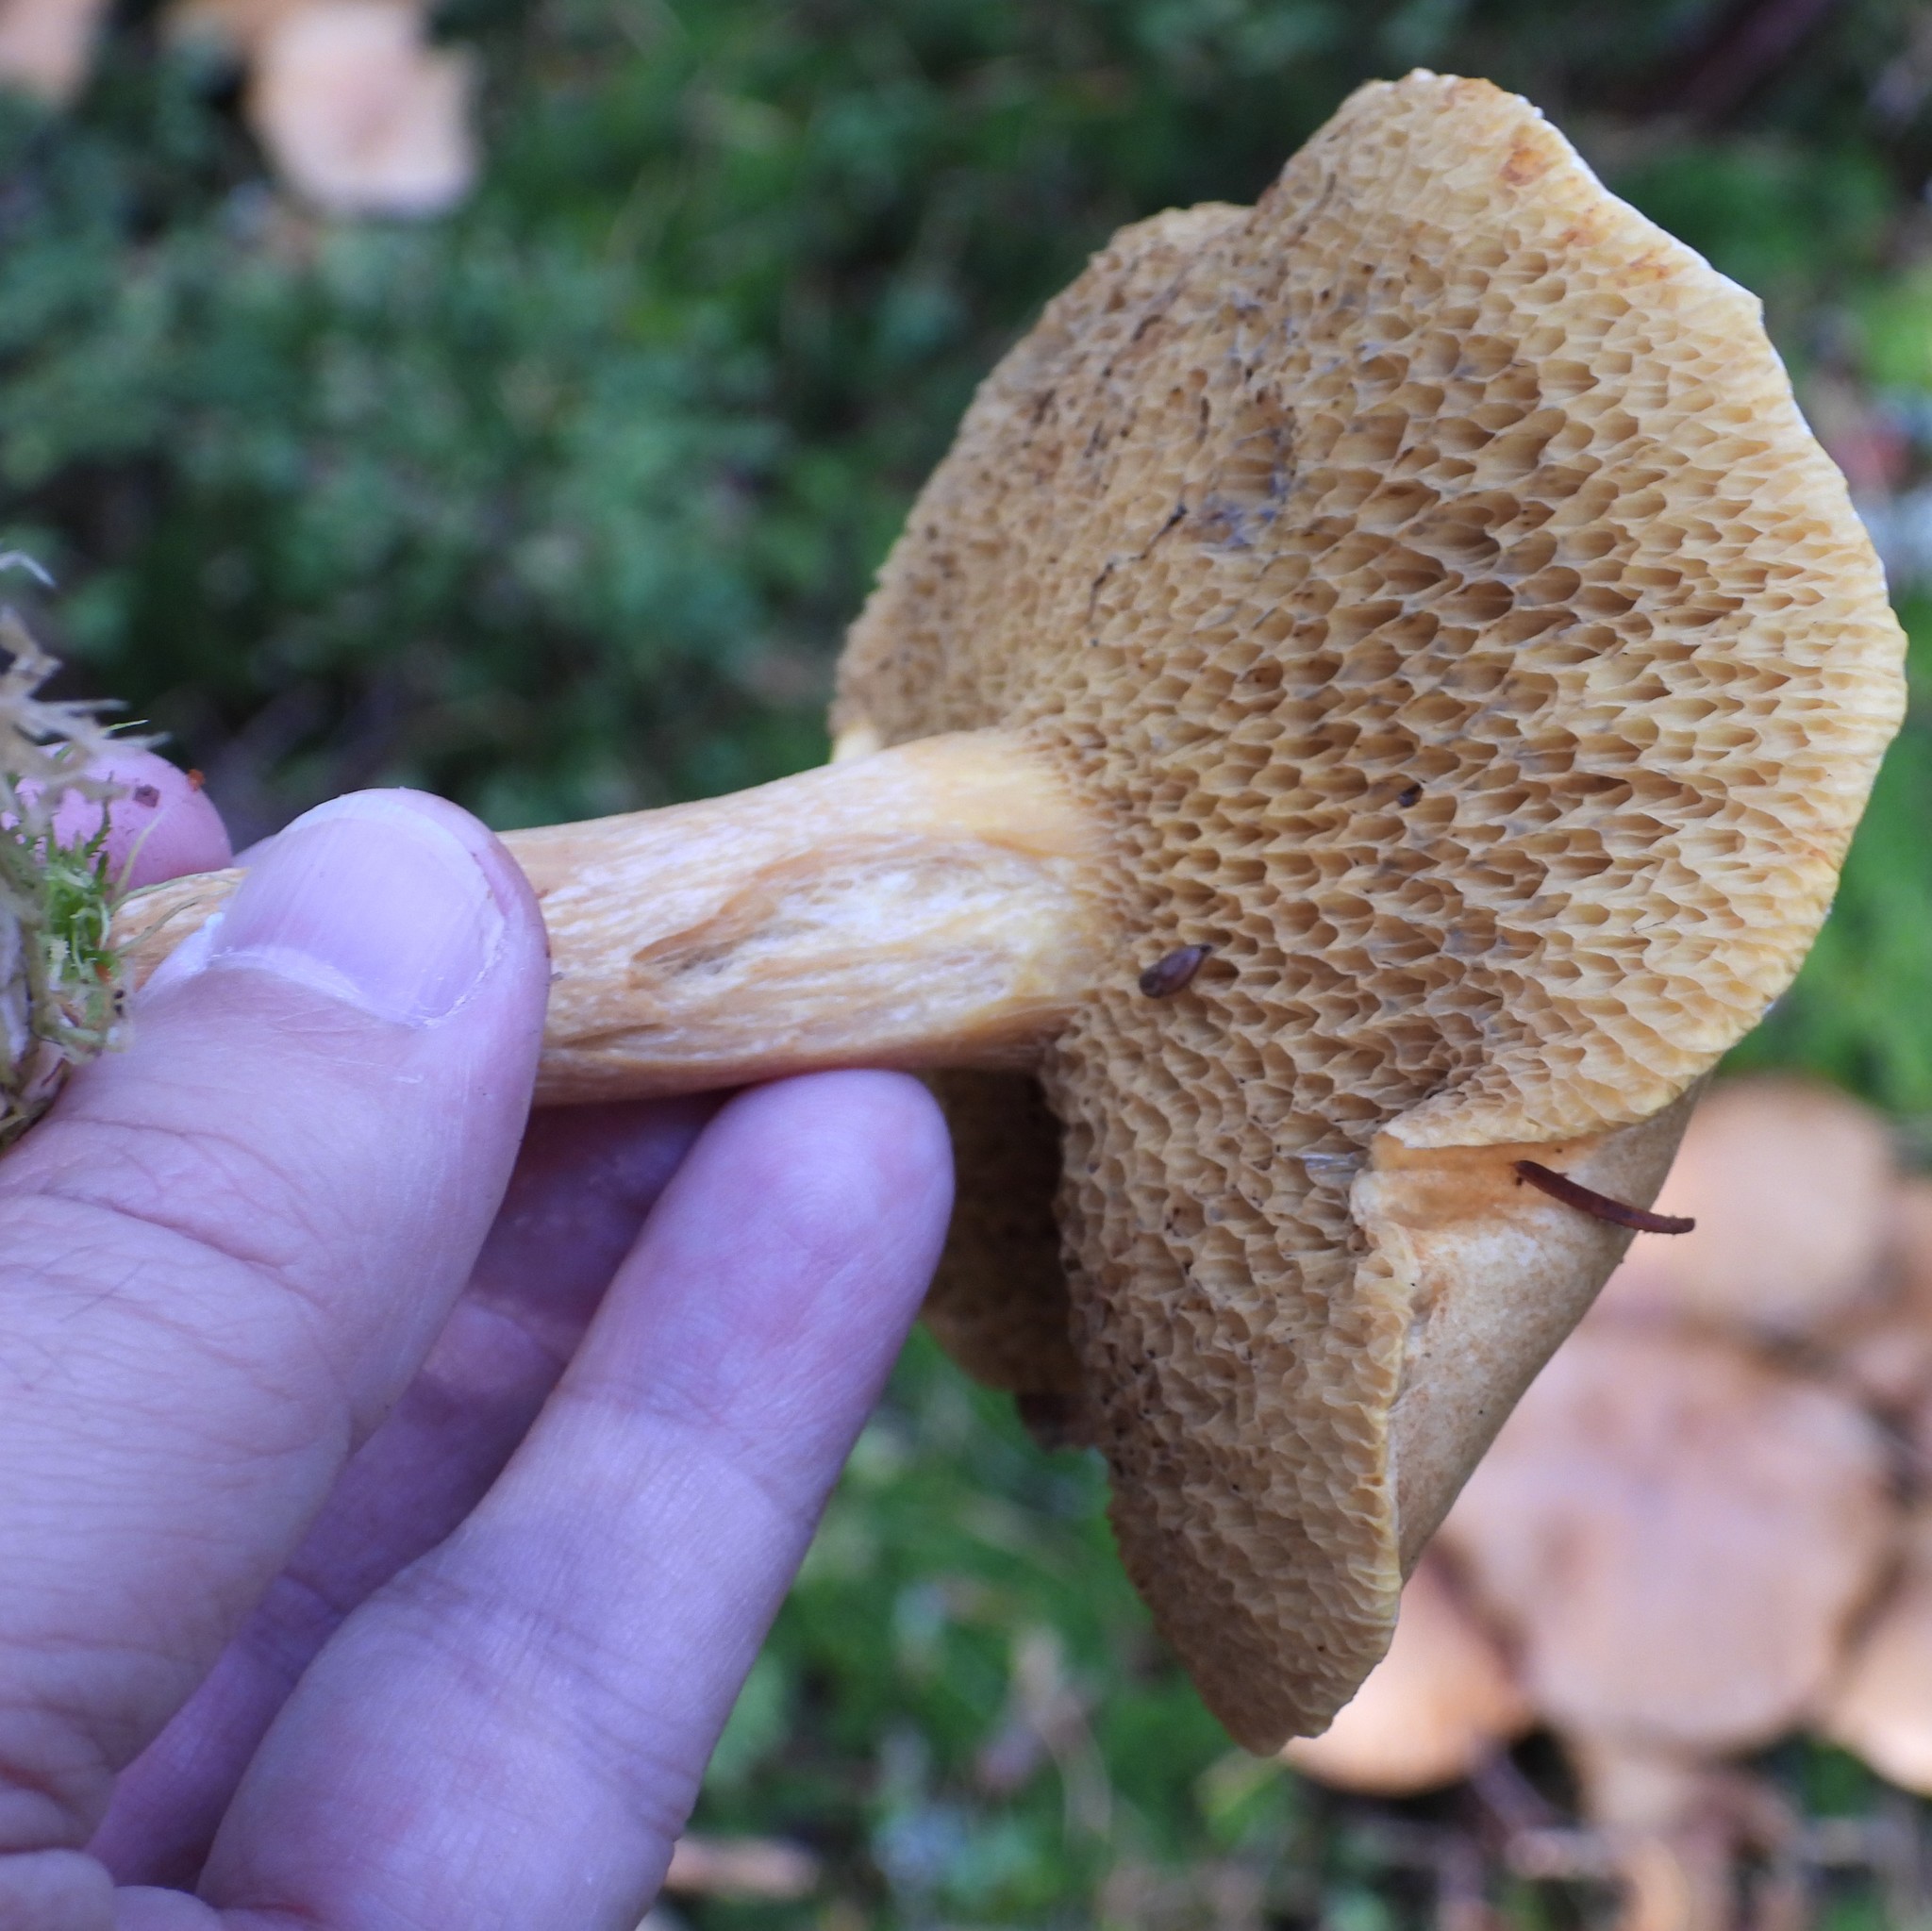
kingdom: Fungi
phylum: Basidiomycota
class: Agaricomycetes
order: Boletales
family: Suillaceae
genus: Suillus
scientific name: Suillus bovinus
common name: Bovine bolete
